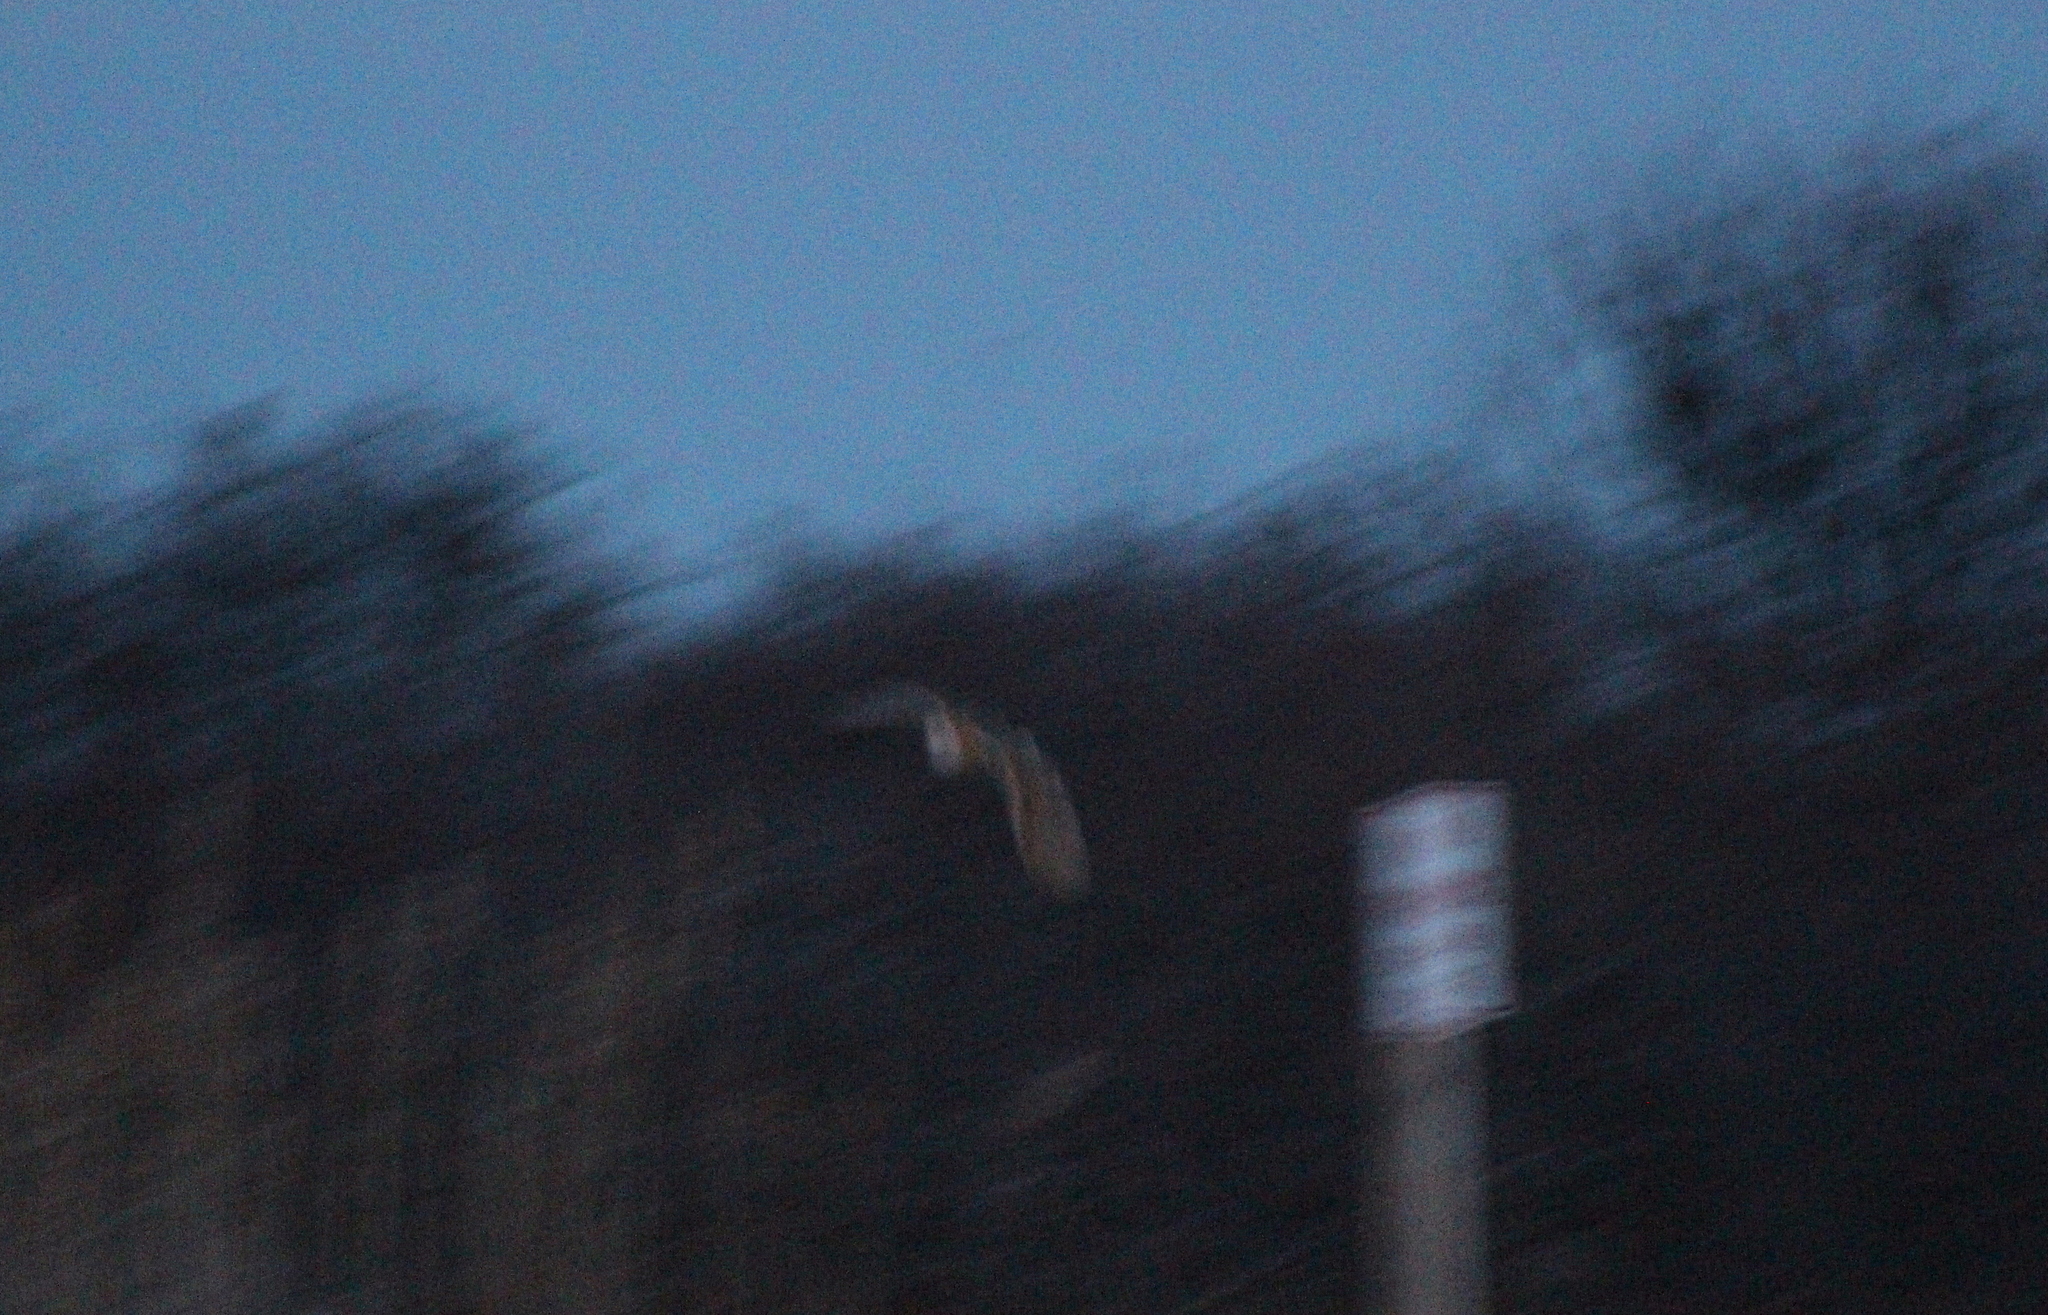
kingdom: Animalia
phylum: Chordata
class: Aves
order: Strigiformes
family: Tytonidae
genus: Tyto
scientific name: Tyto alba
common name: Barn owl
